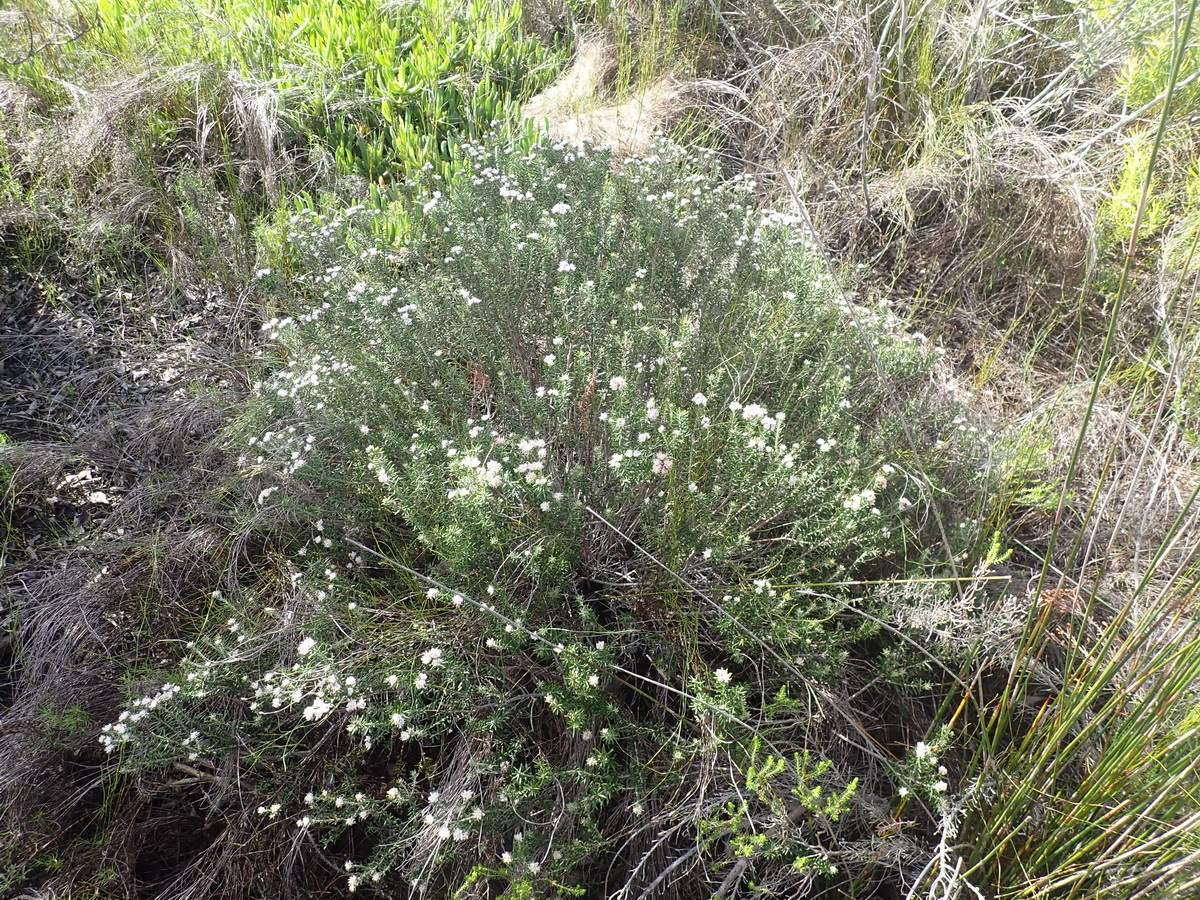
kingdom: Plantae
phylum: Tracheophyta
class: Magnoliopsida
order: Rosales
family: Rhamnaceae
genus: Trichocephalus
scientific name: Trichocephalus stipularis
